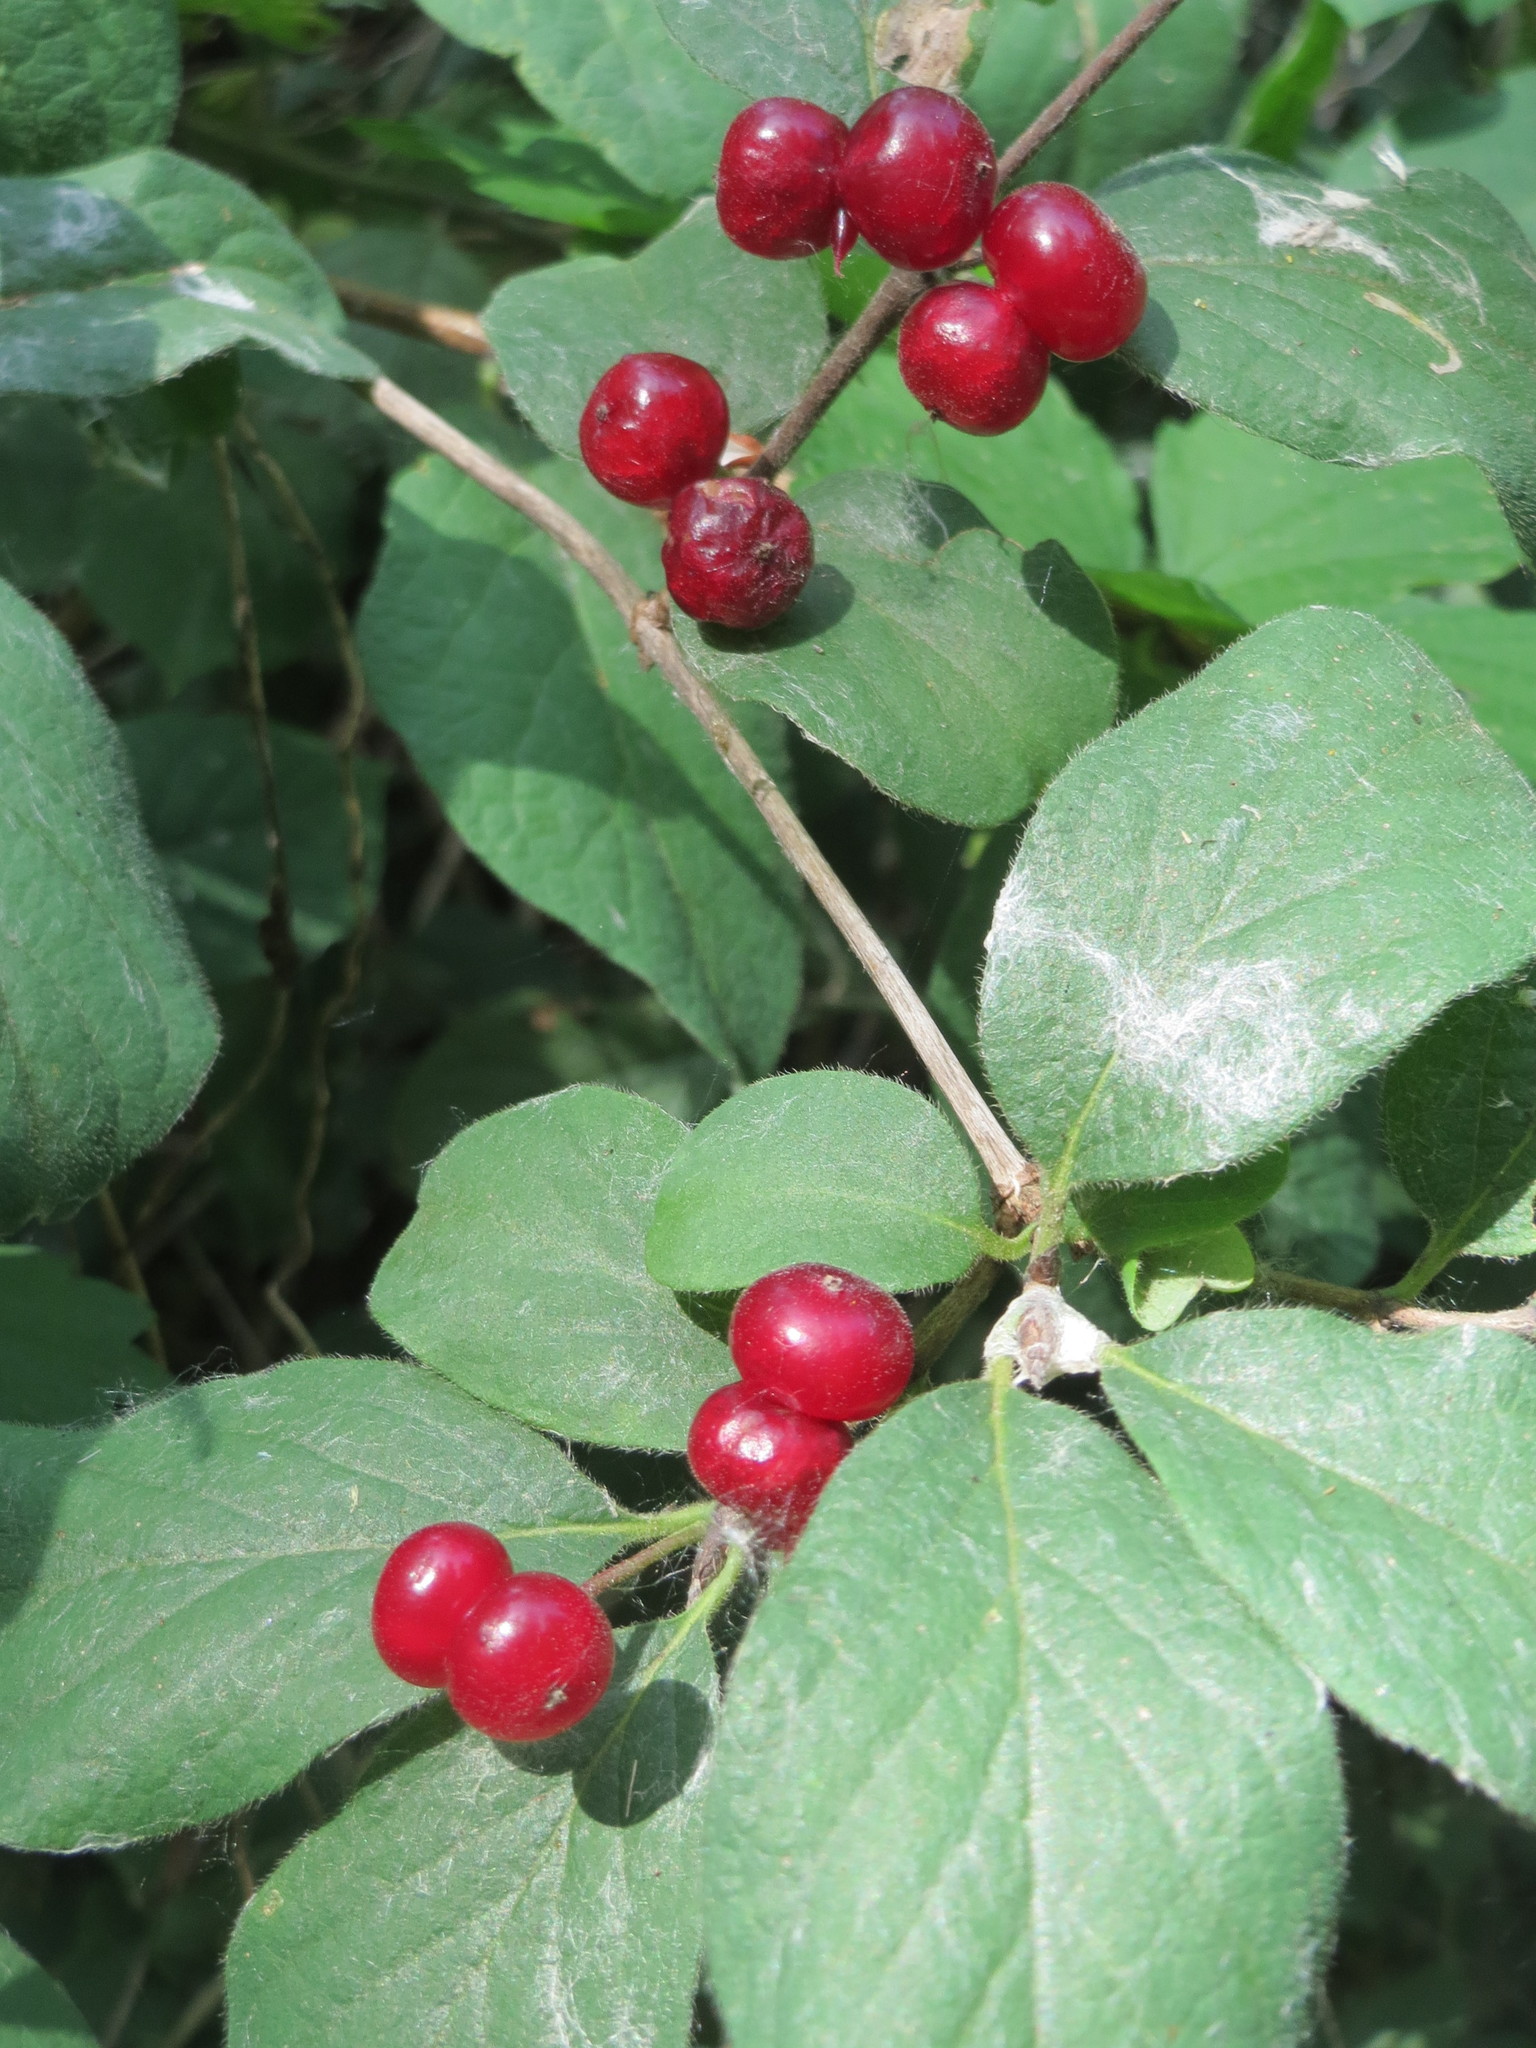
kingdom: Plantae
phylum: Tracheophyta
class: Magnoliopsida
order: Dipsacales
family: Caprifoliaceae
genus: Lonicera
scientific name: Lonicera xylosteum
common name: Fly honeysuckle
